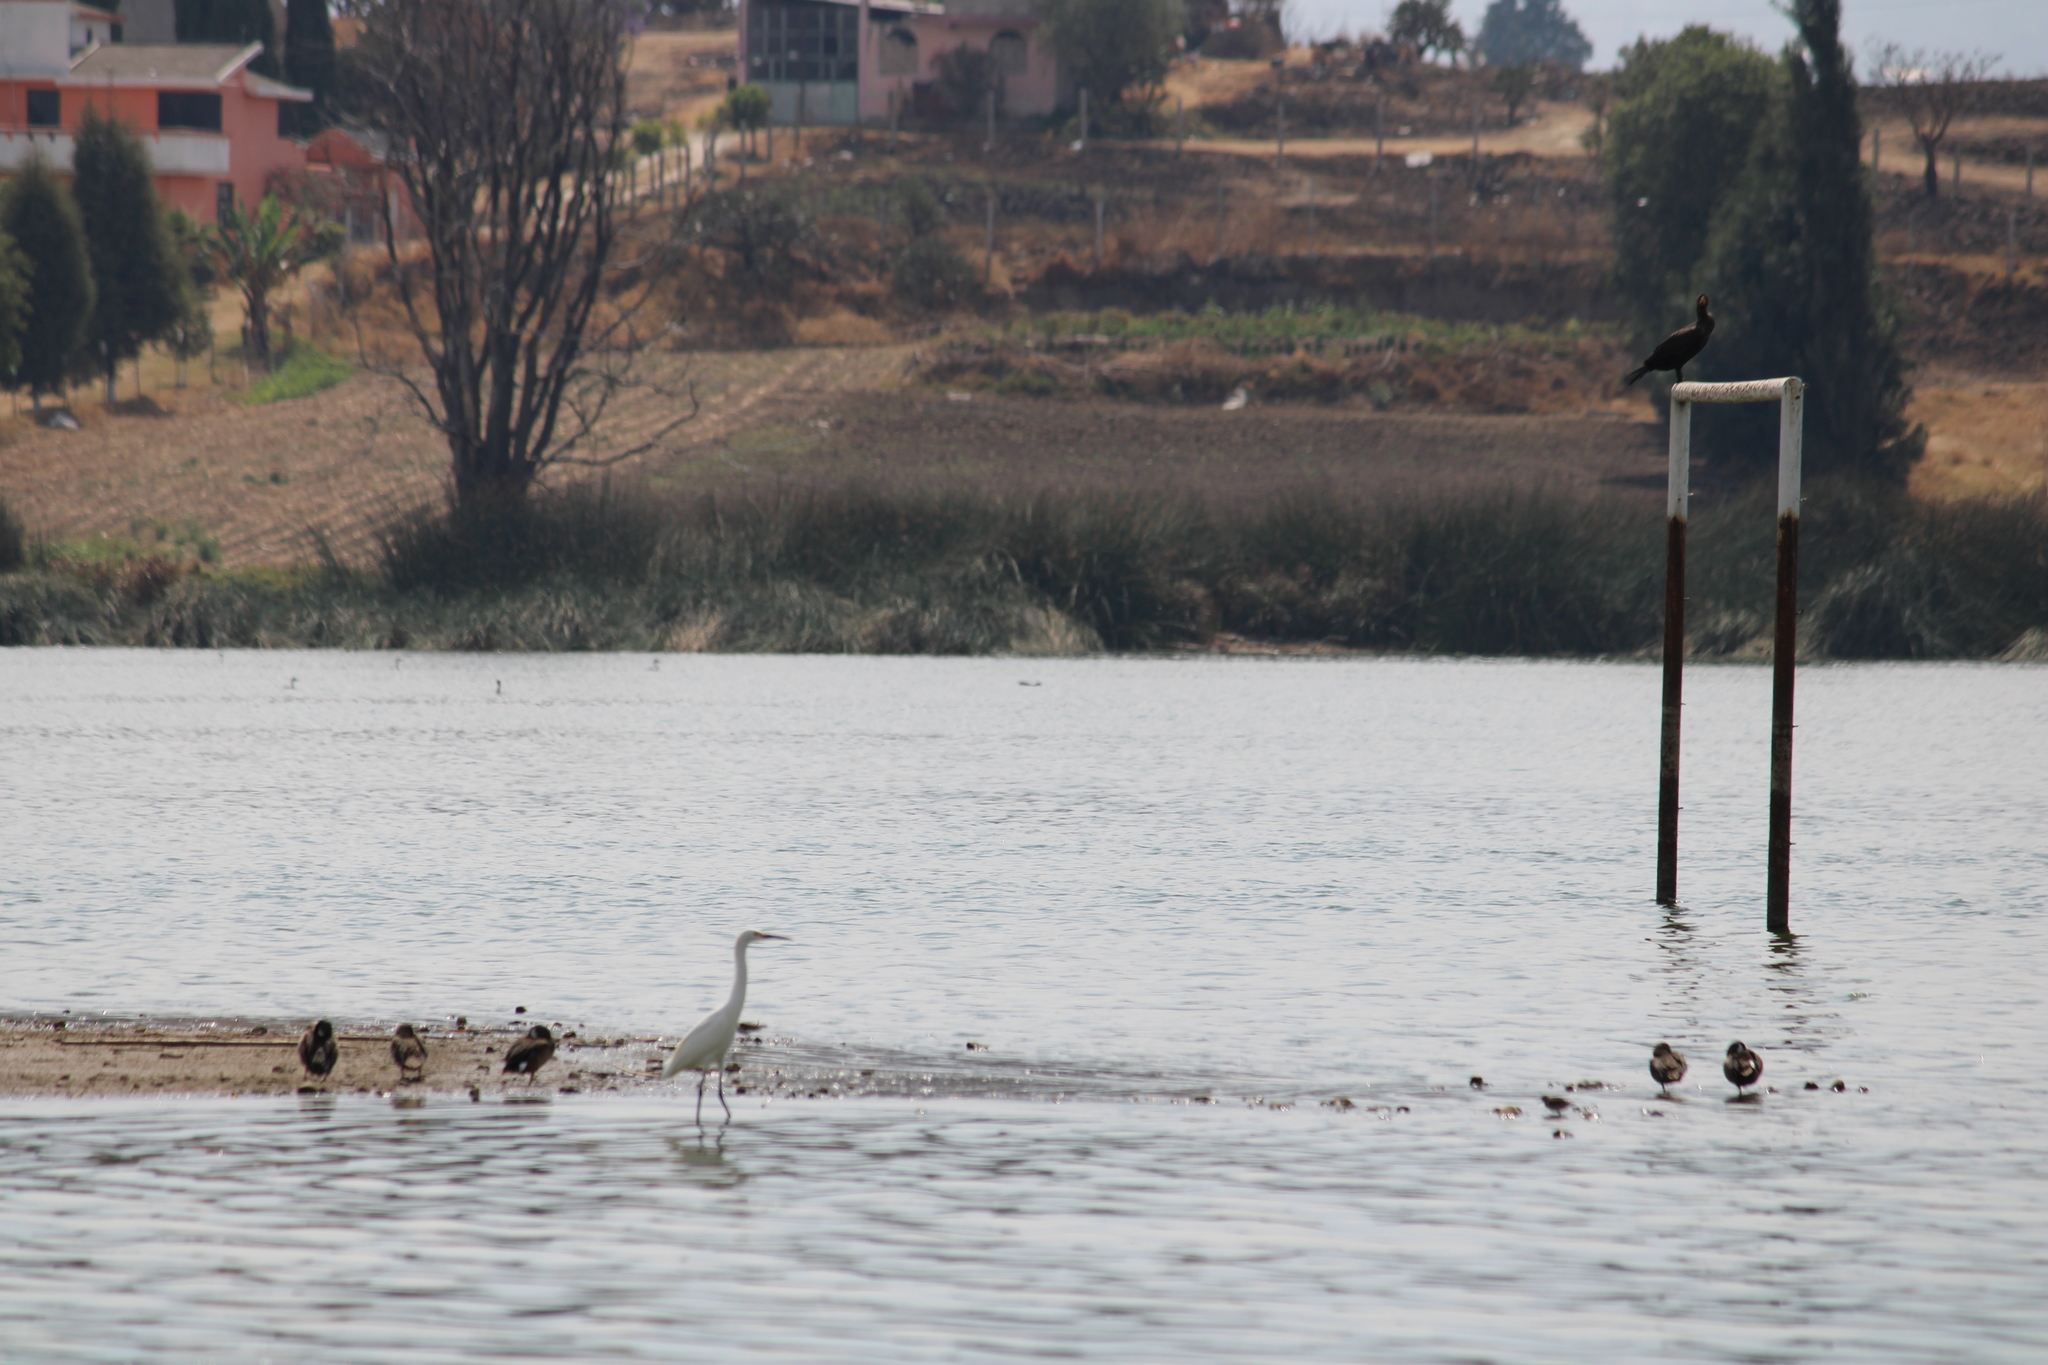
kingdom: Animalia
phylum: Chordata
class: Aves
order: Pelecaniformes
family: Ardeidae
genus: Egretta
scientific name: Egretta thula
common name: Snowy egret
